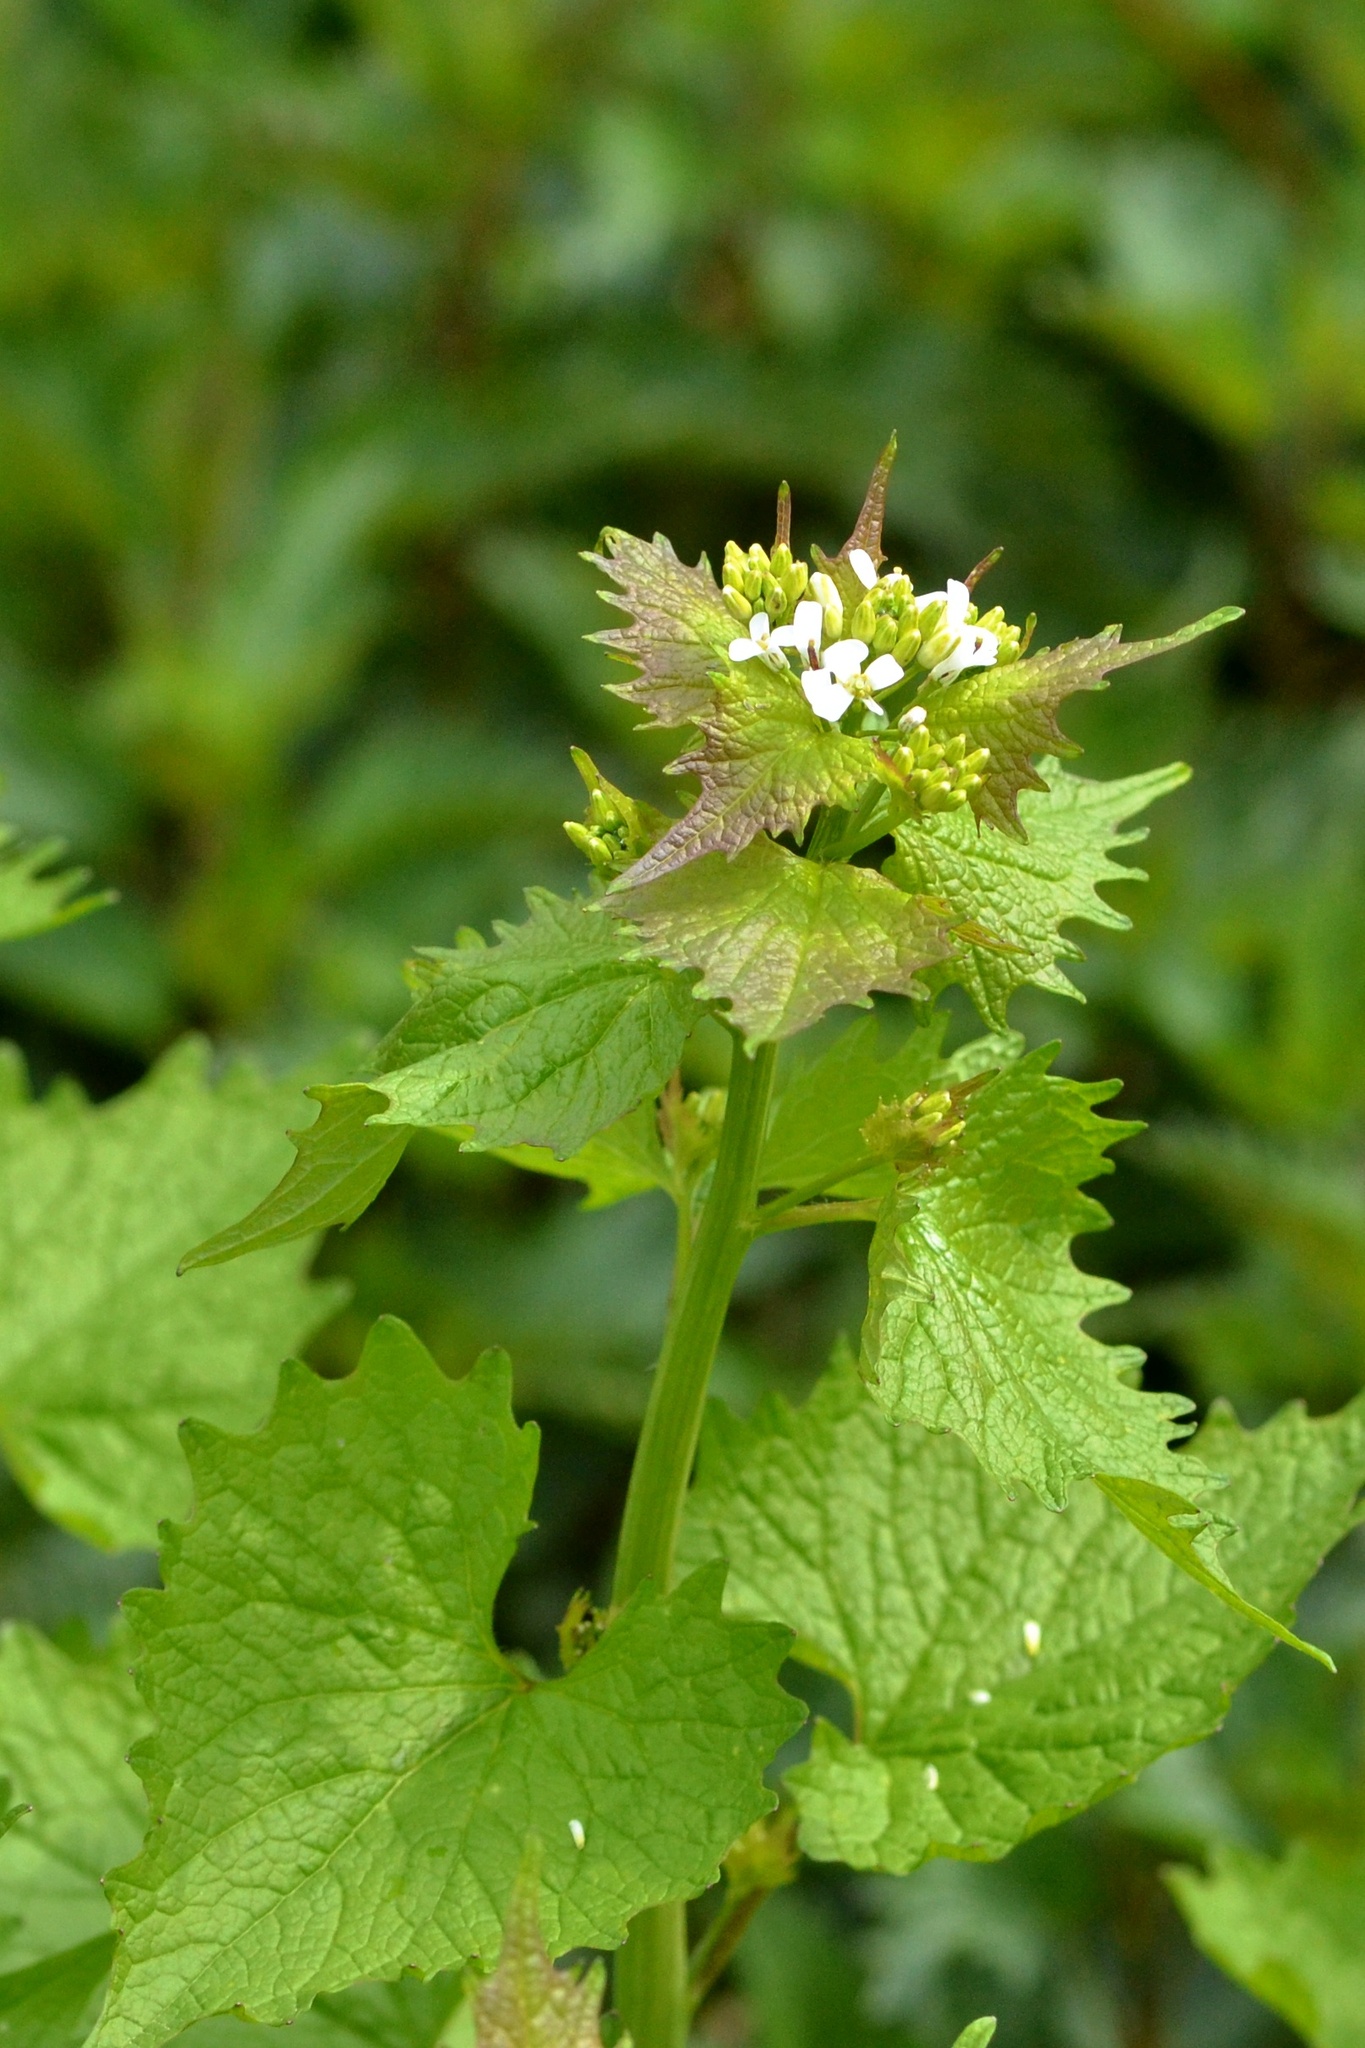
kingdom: Plantae
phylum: Tracheophyta
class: Magnoliopsida
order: Brassicales
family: Brassicaceae
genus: Alliaria
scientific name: Alliaria petiolata
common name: Garlic mustard
